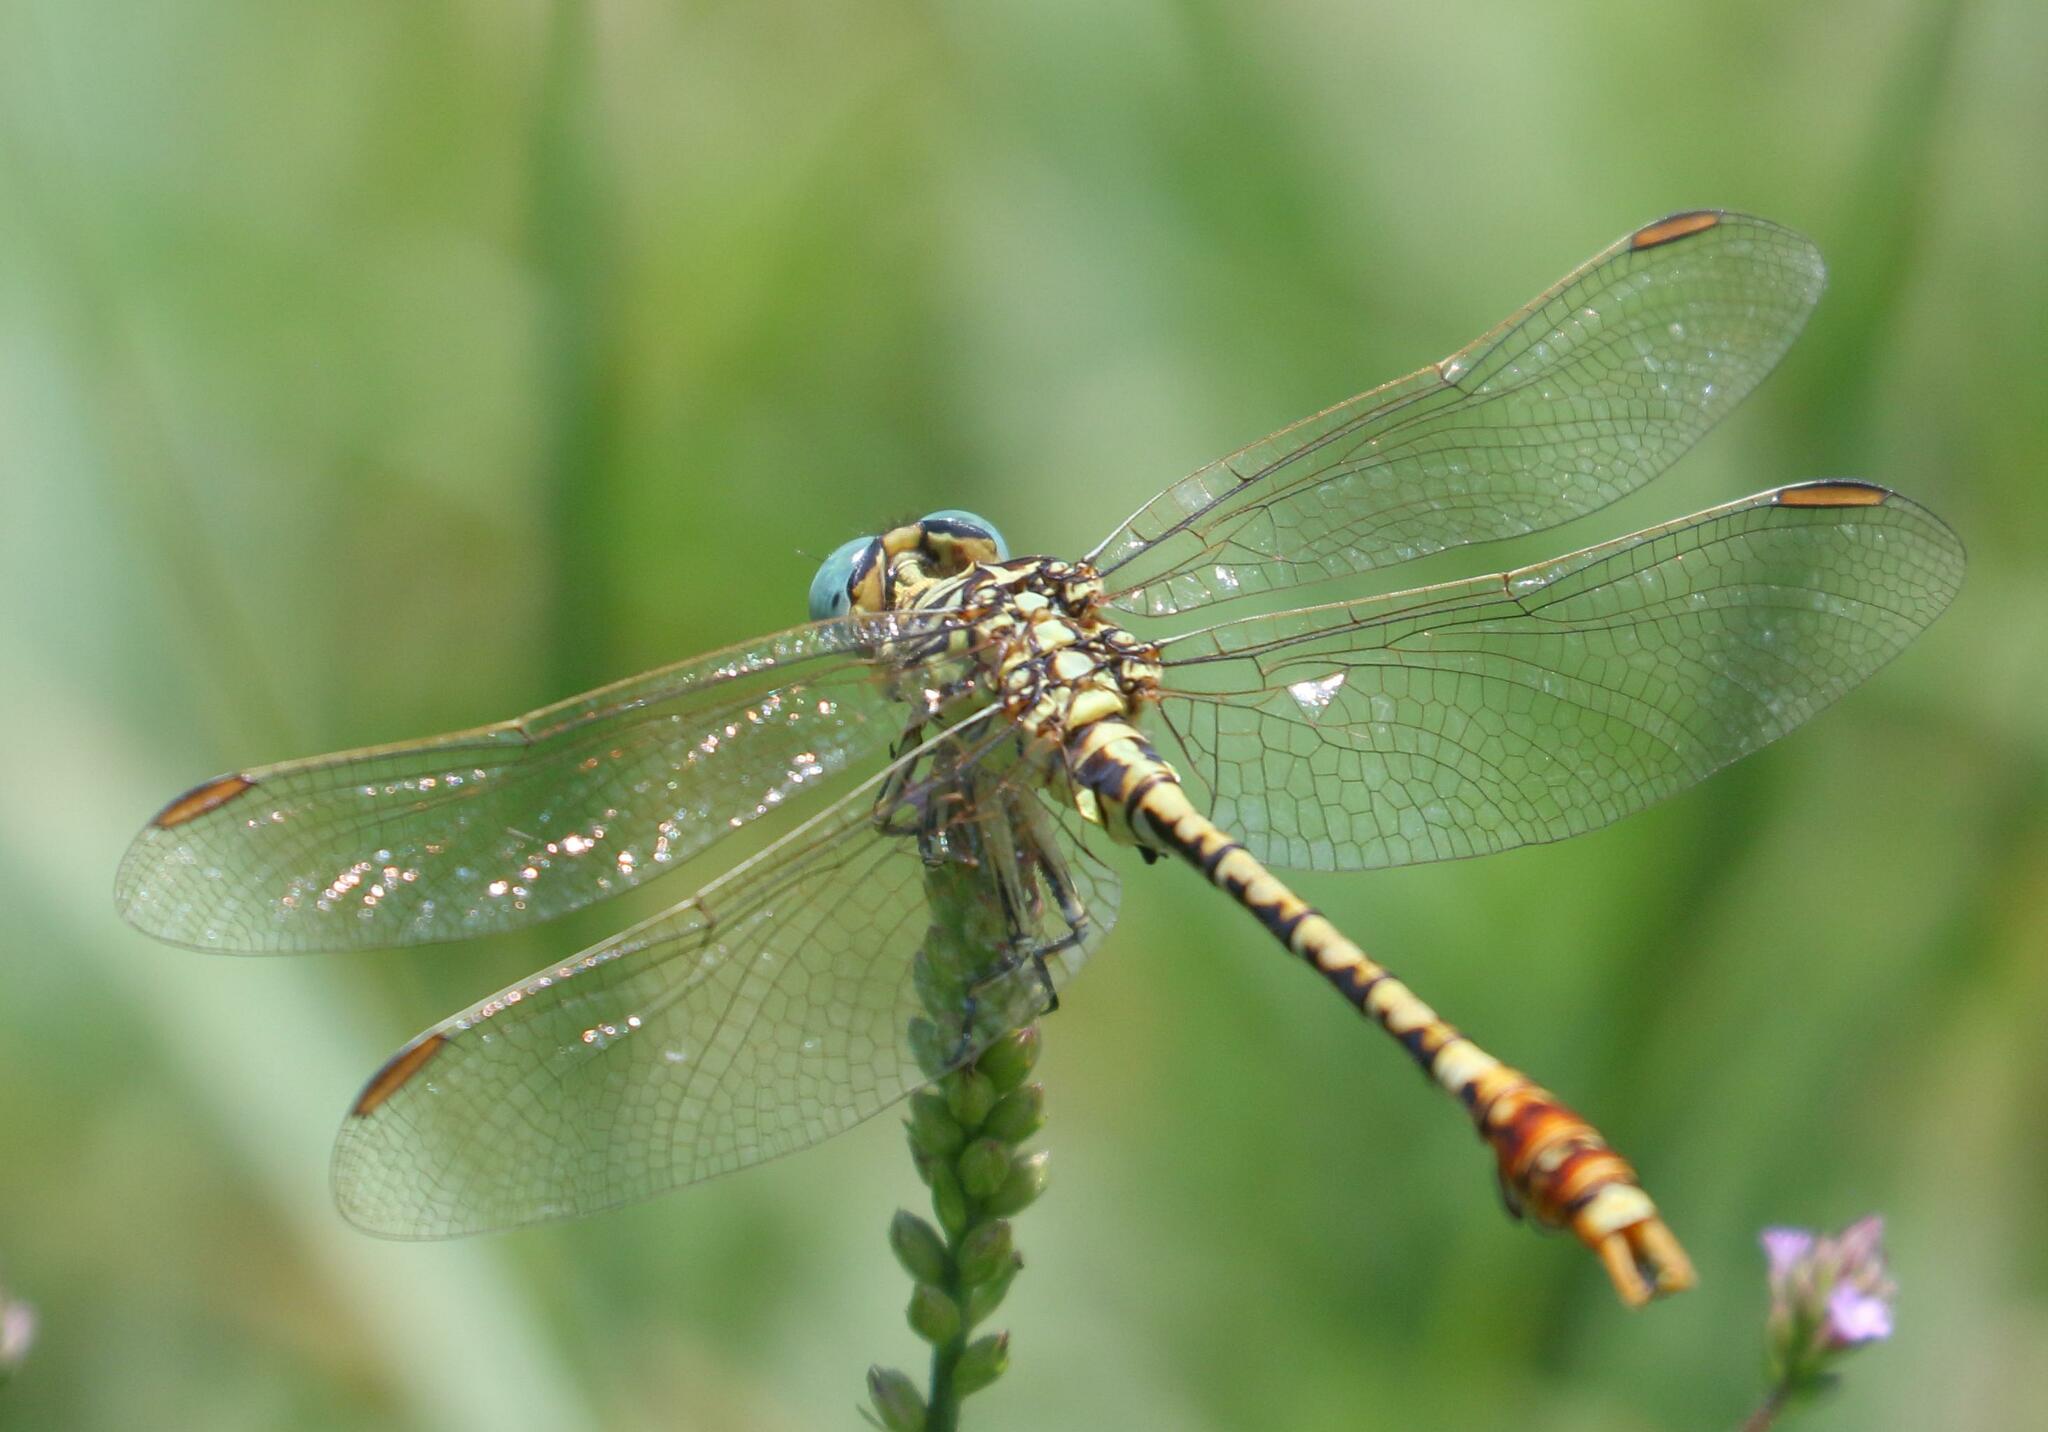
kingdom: Animalia
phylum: Arthropoda
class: Insecta
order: Odonata
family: Gomphidae
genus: Onychogomphus
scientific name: Onychogomphus supinus
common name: Gorge claspertail
